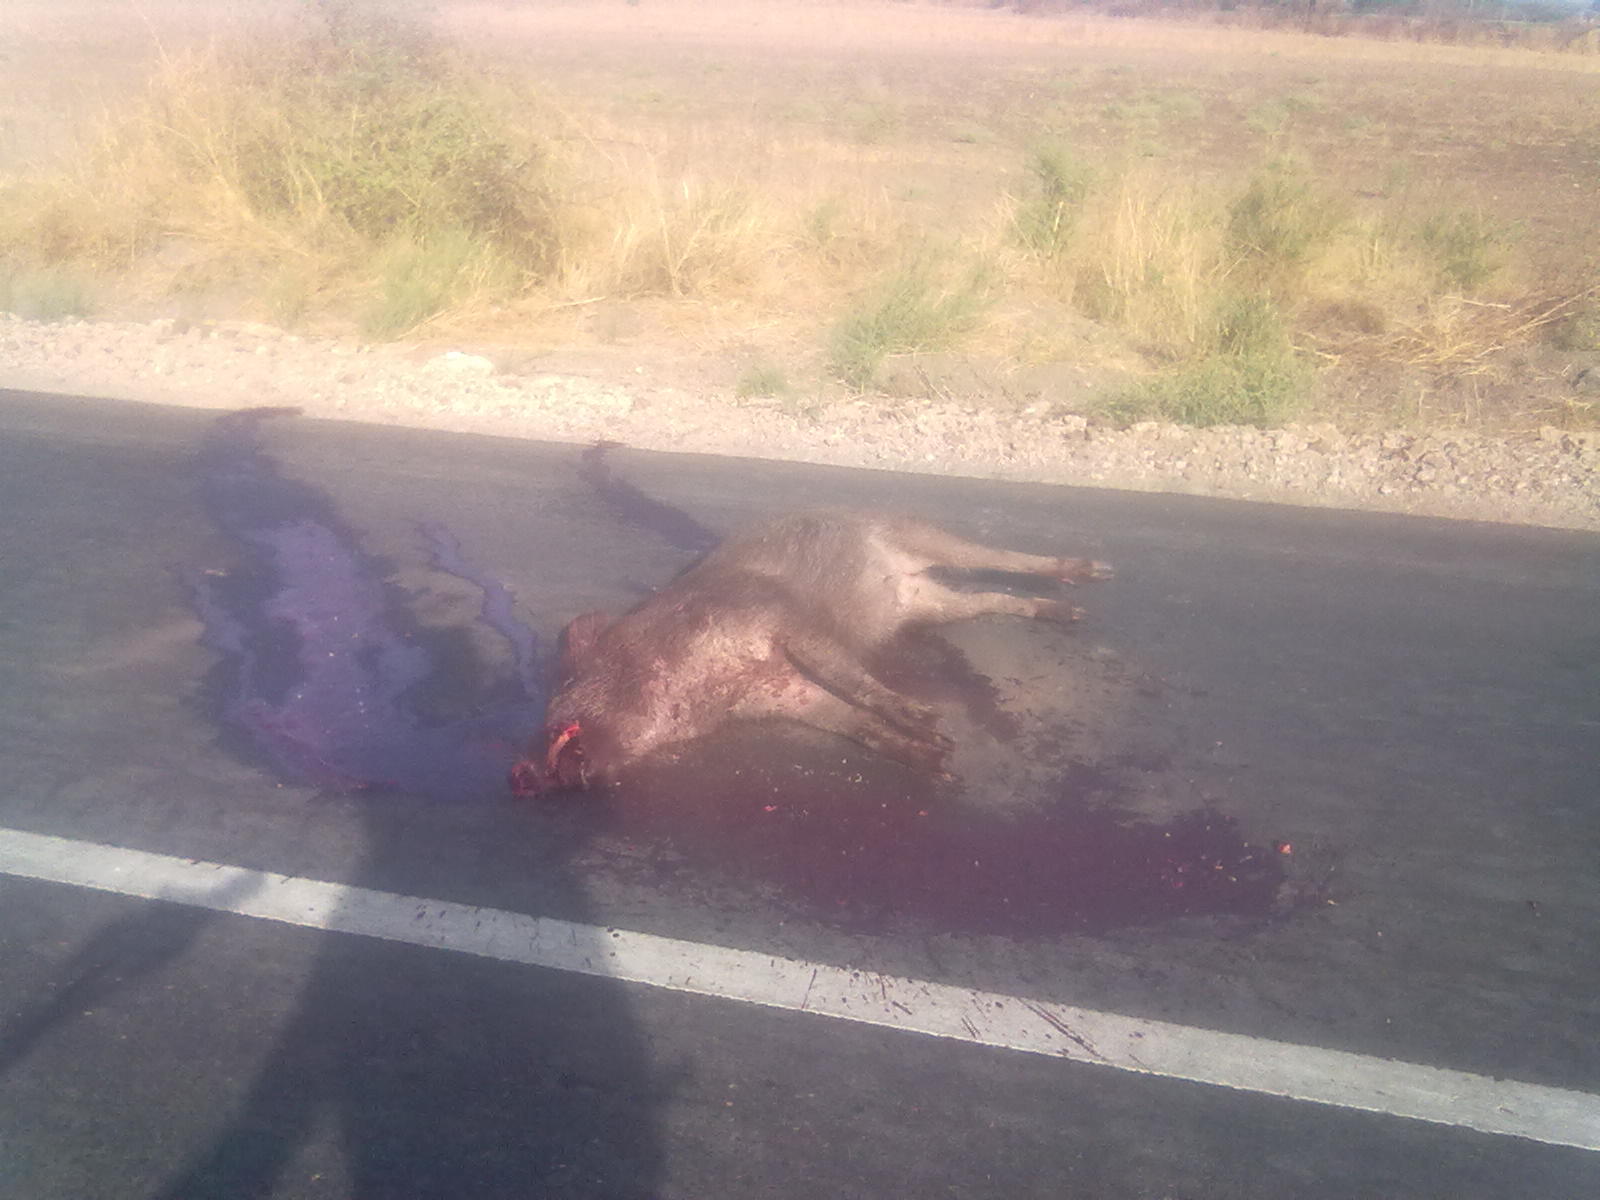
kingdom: Animalia
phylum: Chordata
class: Mammalia
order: Artiodactyla
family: Suidae
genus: Sus
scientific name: Sus scrofa
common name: Wild boar
